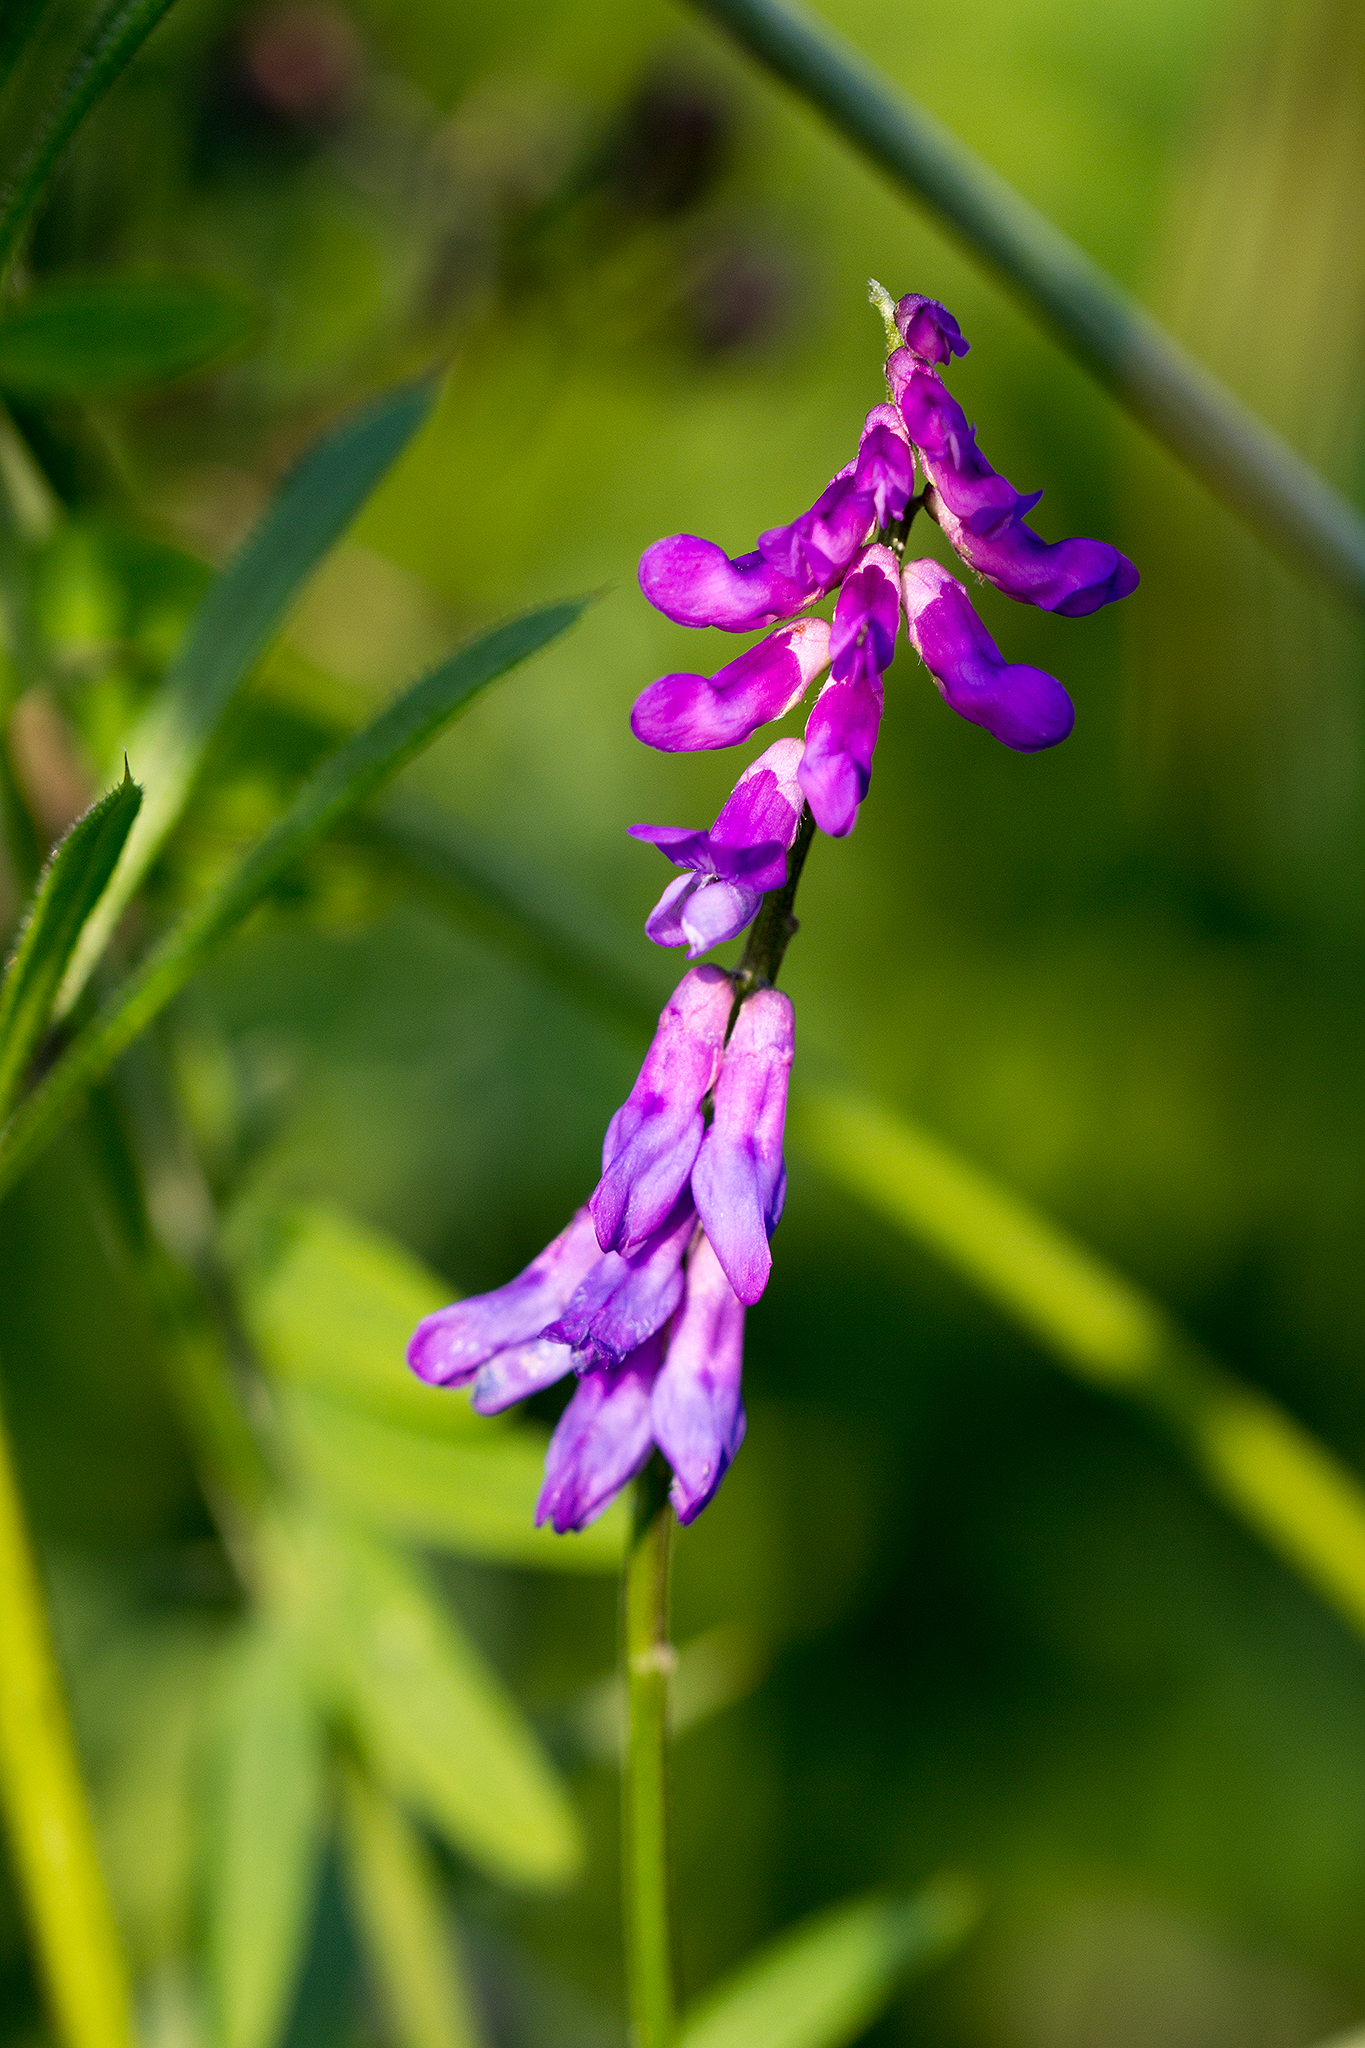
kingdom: Plantae
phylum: Tracheophyta
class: Magnoliopsida
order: Fabales
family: Fabaceae
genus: Vicia
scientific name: Vicia cracca
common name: Bird vetch
